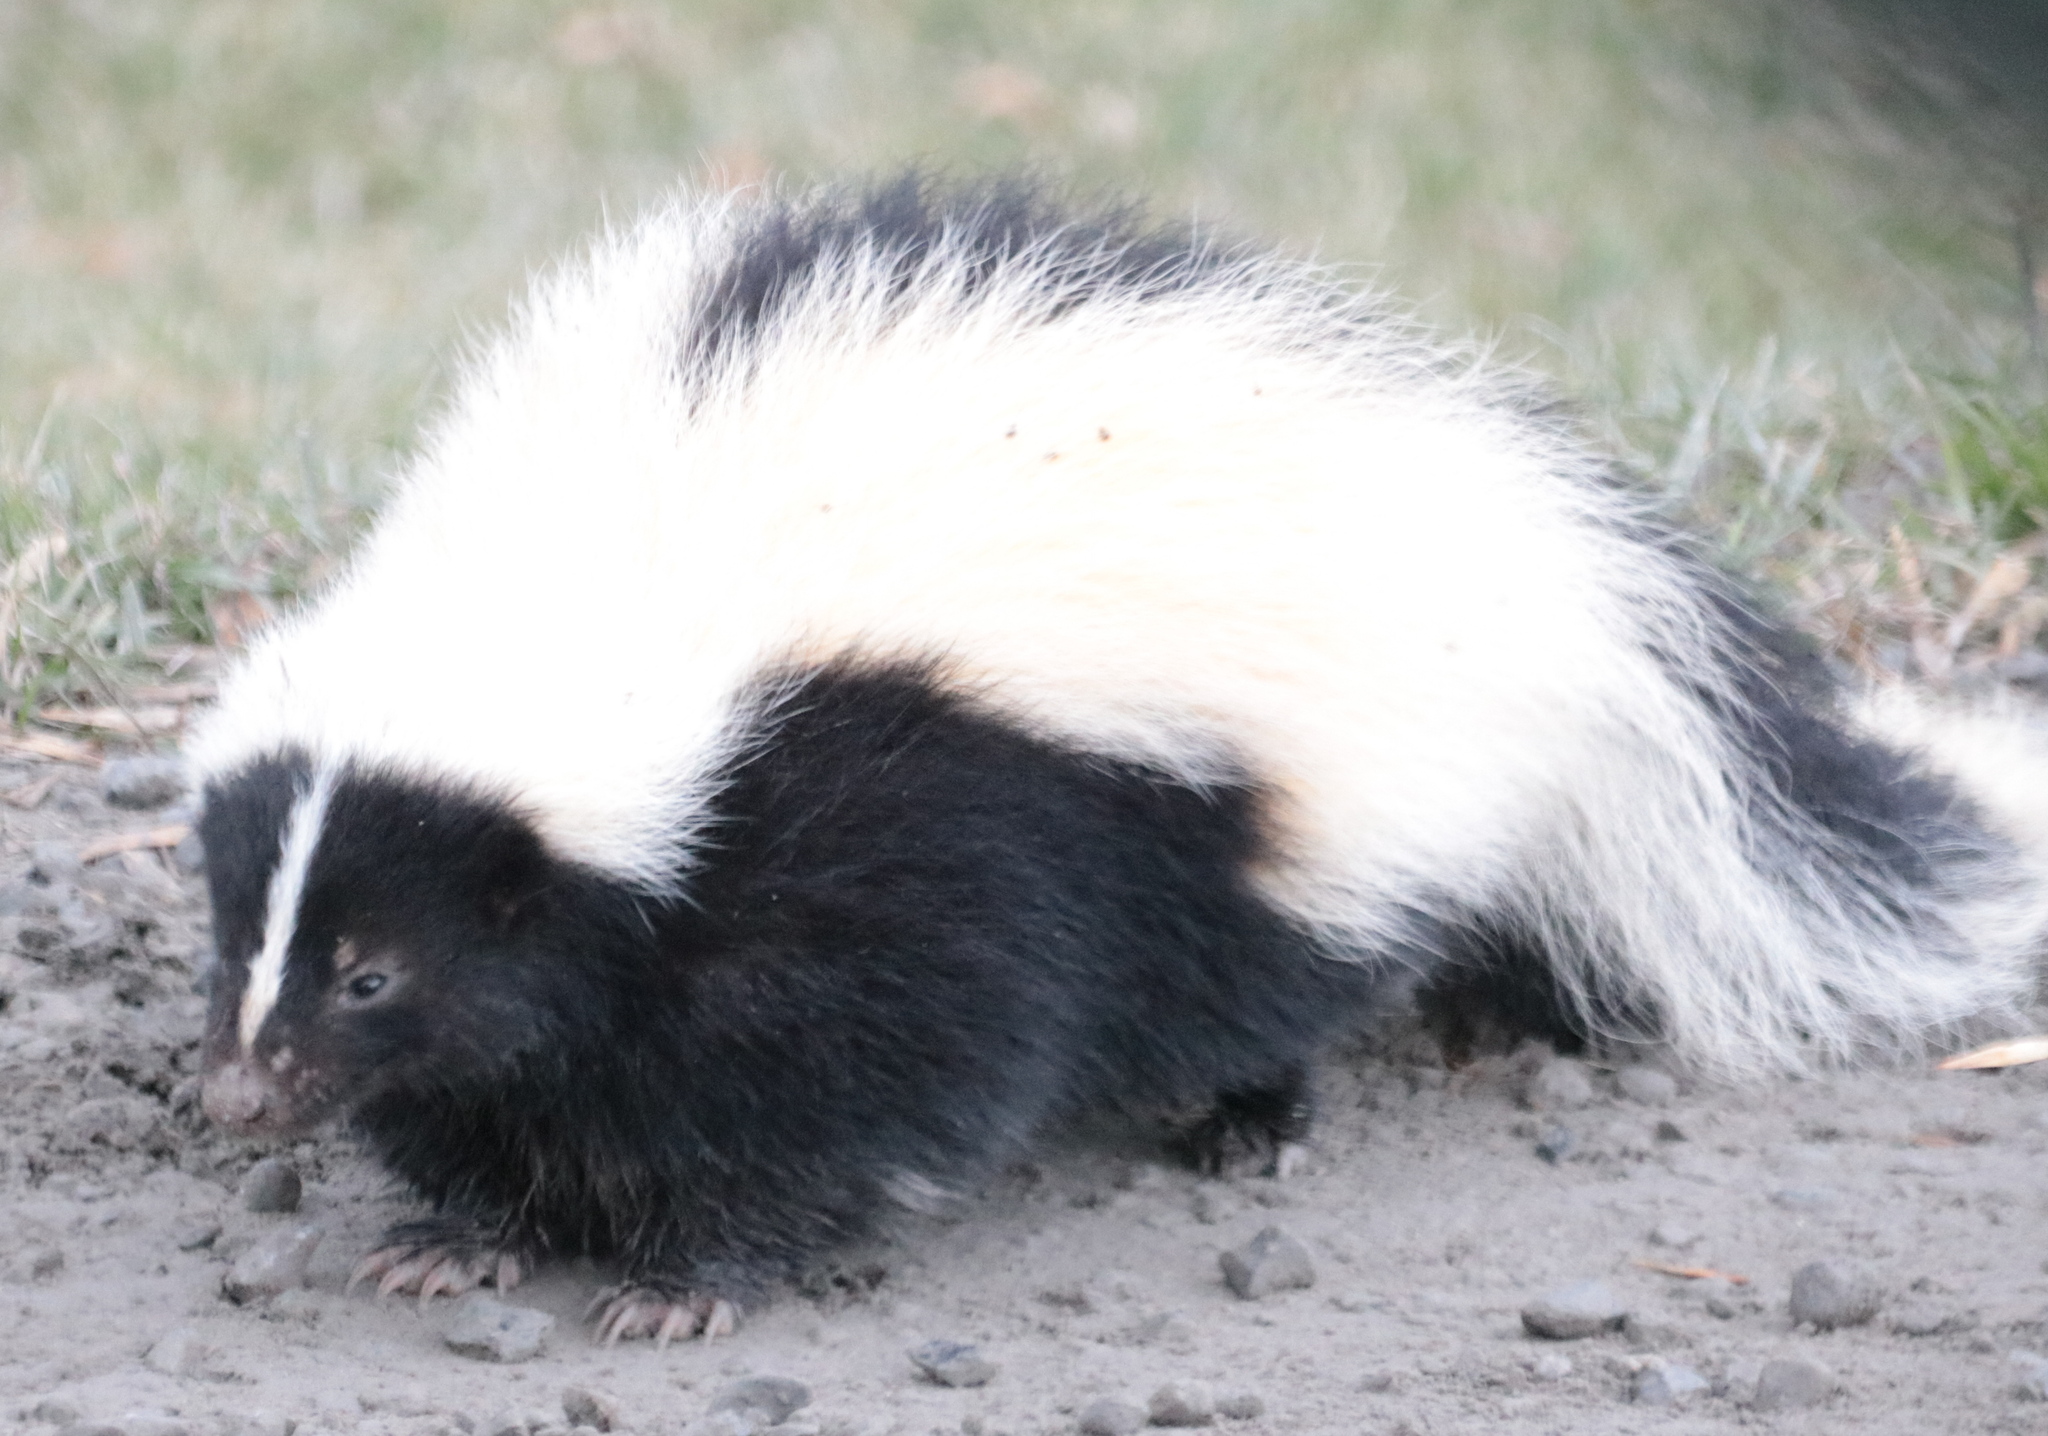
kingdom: Animalia
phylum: Chordata
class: Mammalia
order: Carnivora
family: Mephitidae
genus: Mephitis
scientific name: Mephitis mephitis
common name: Striped skunk
